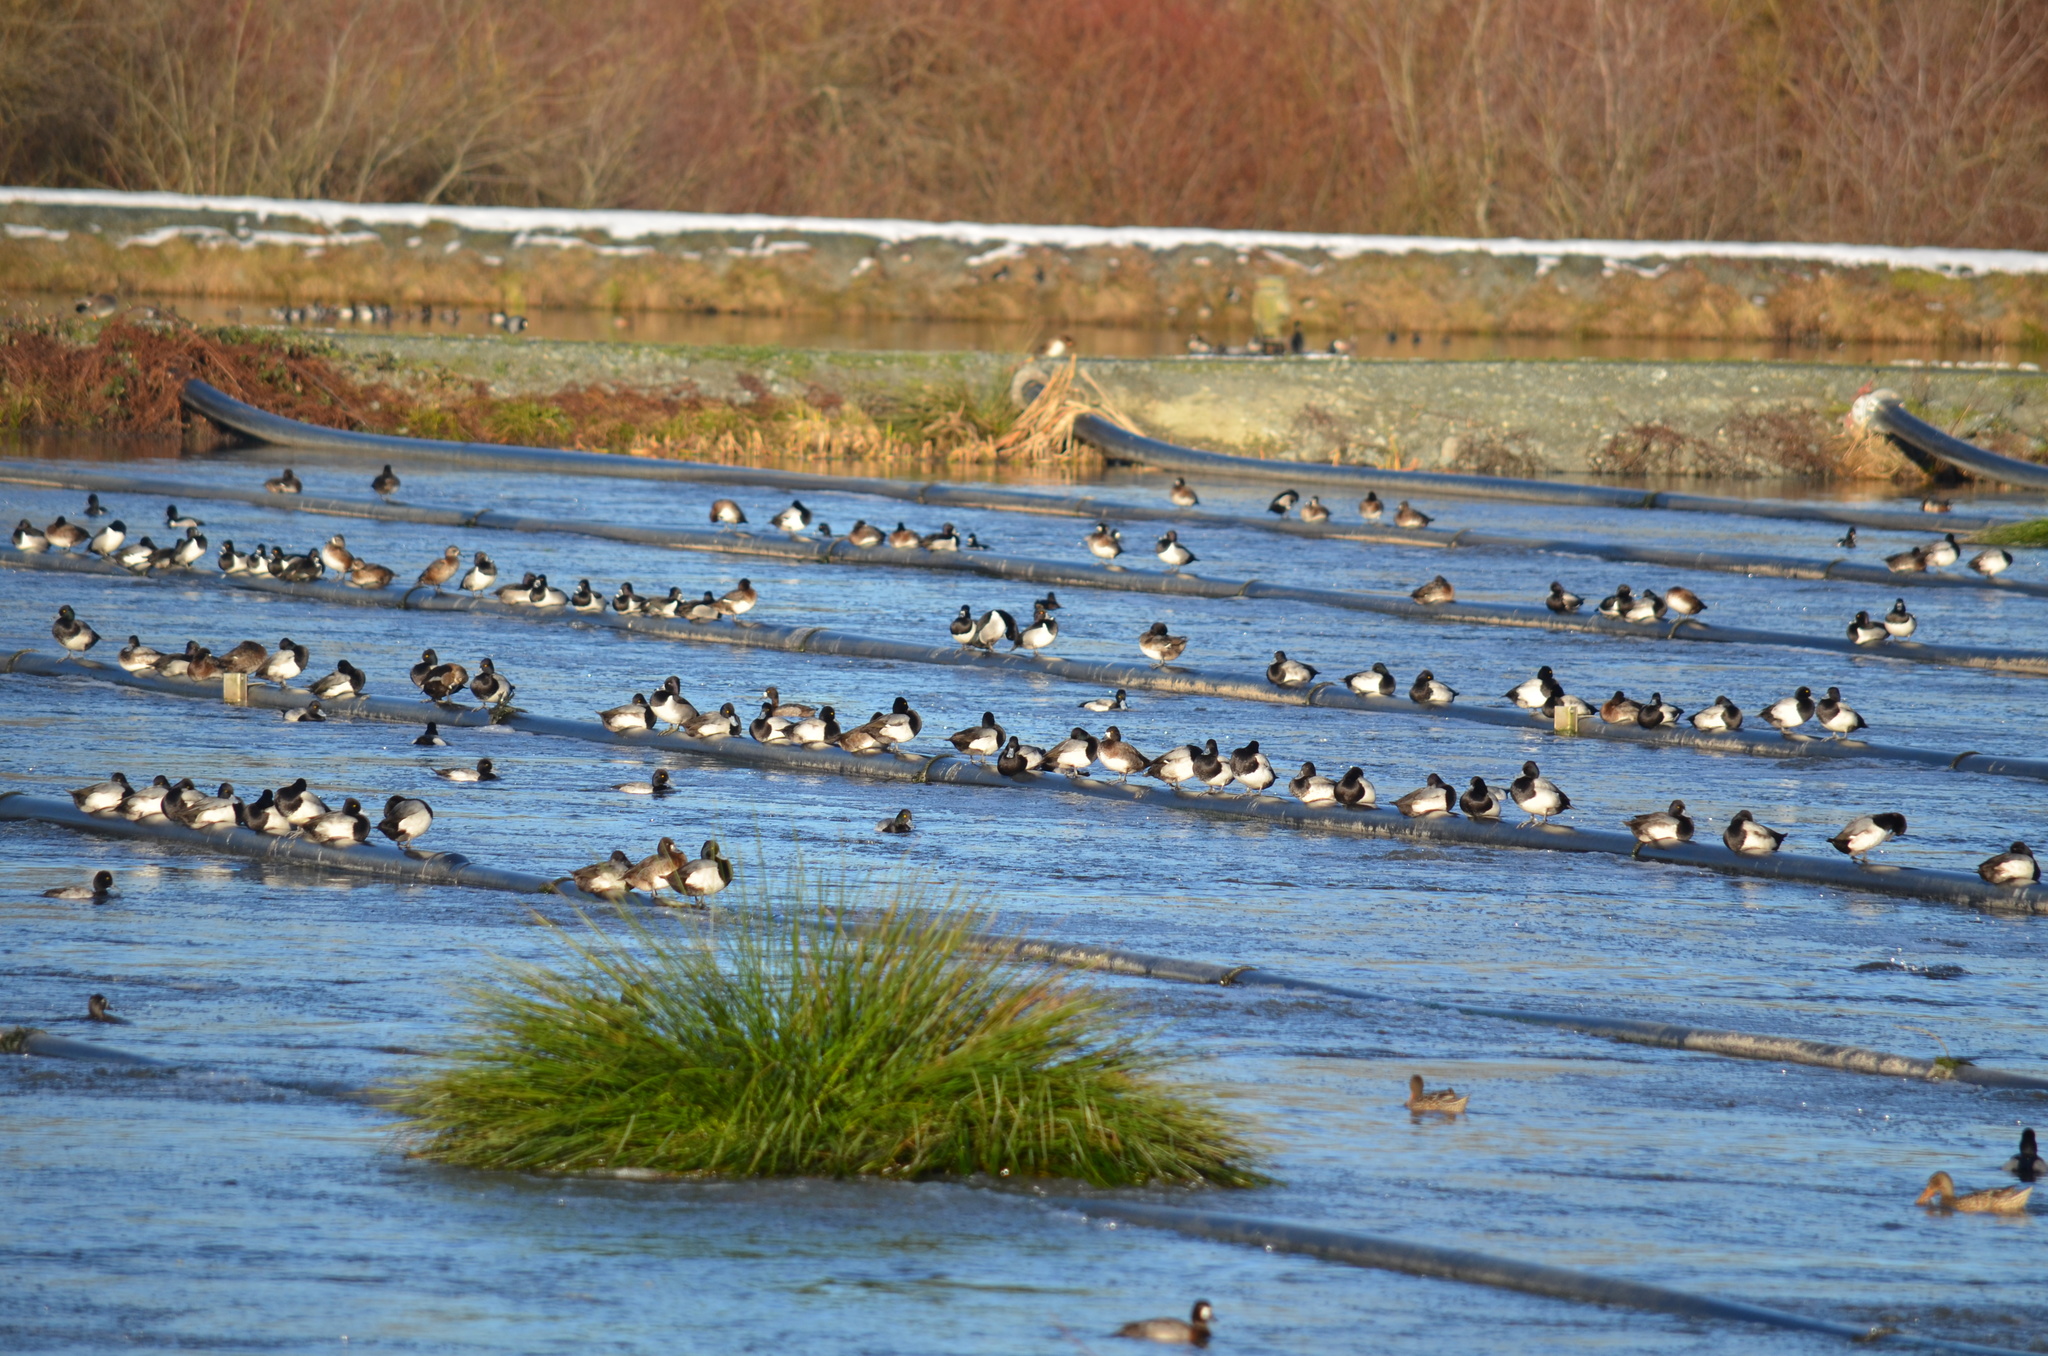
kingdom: Animalia
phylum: Chordata
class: Aves
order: Anseriformes
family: Anatidae
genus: Aythya
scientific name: Aythya affinis
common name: Lesser scaup
